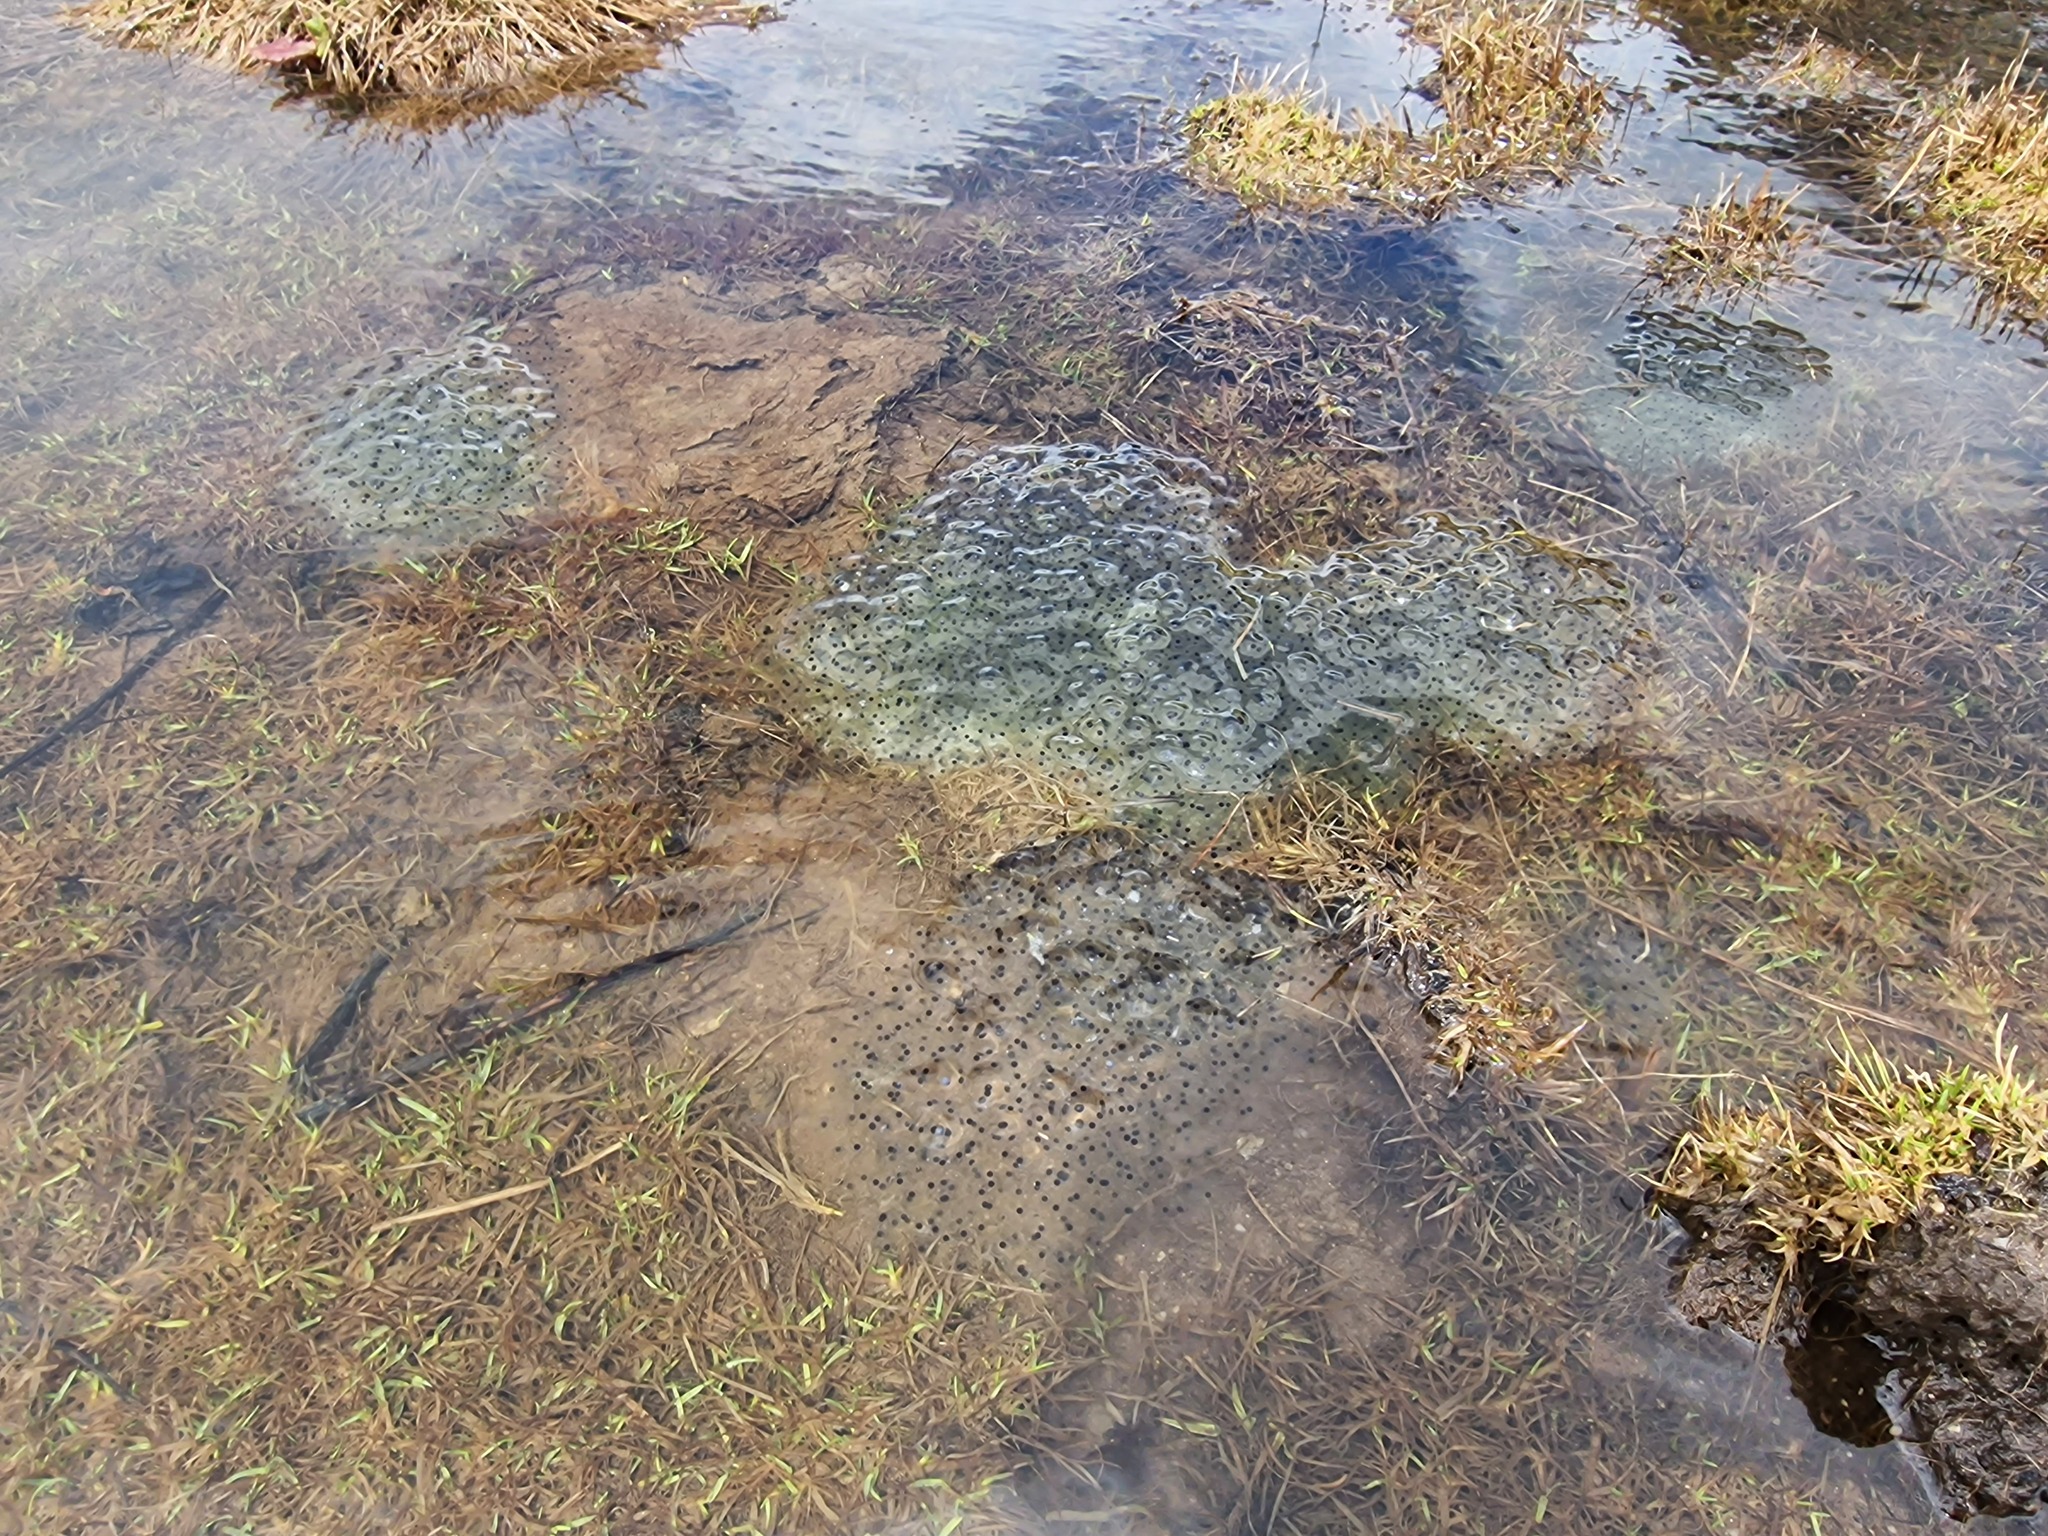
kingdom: Animalia
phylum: Chordata
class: Amphibia
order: Anura
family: Ranidae
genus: Rana
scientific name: Rana temporaria
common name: Common frog
